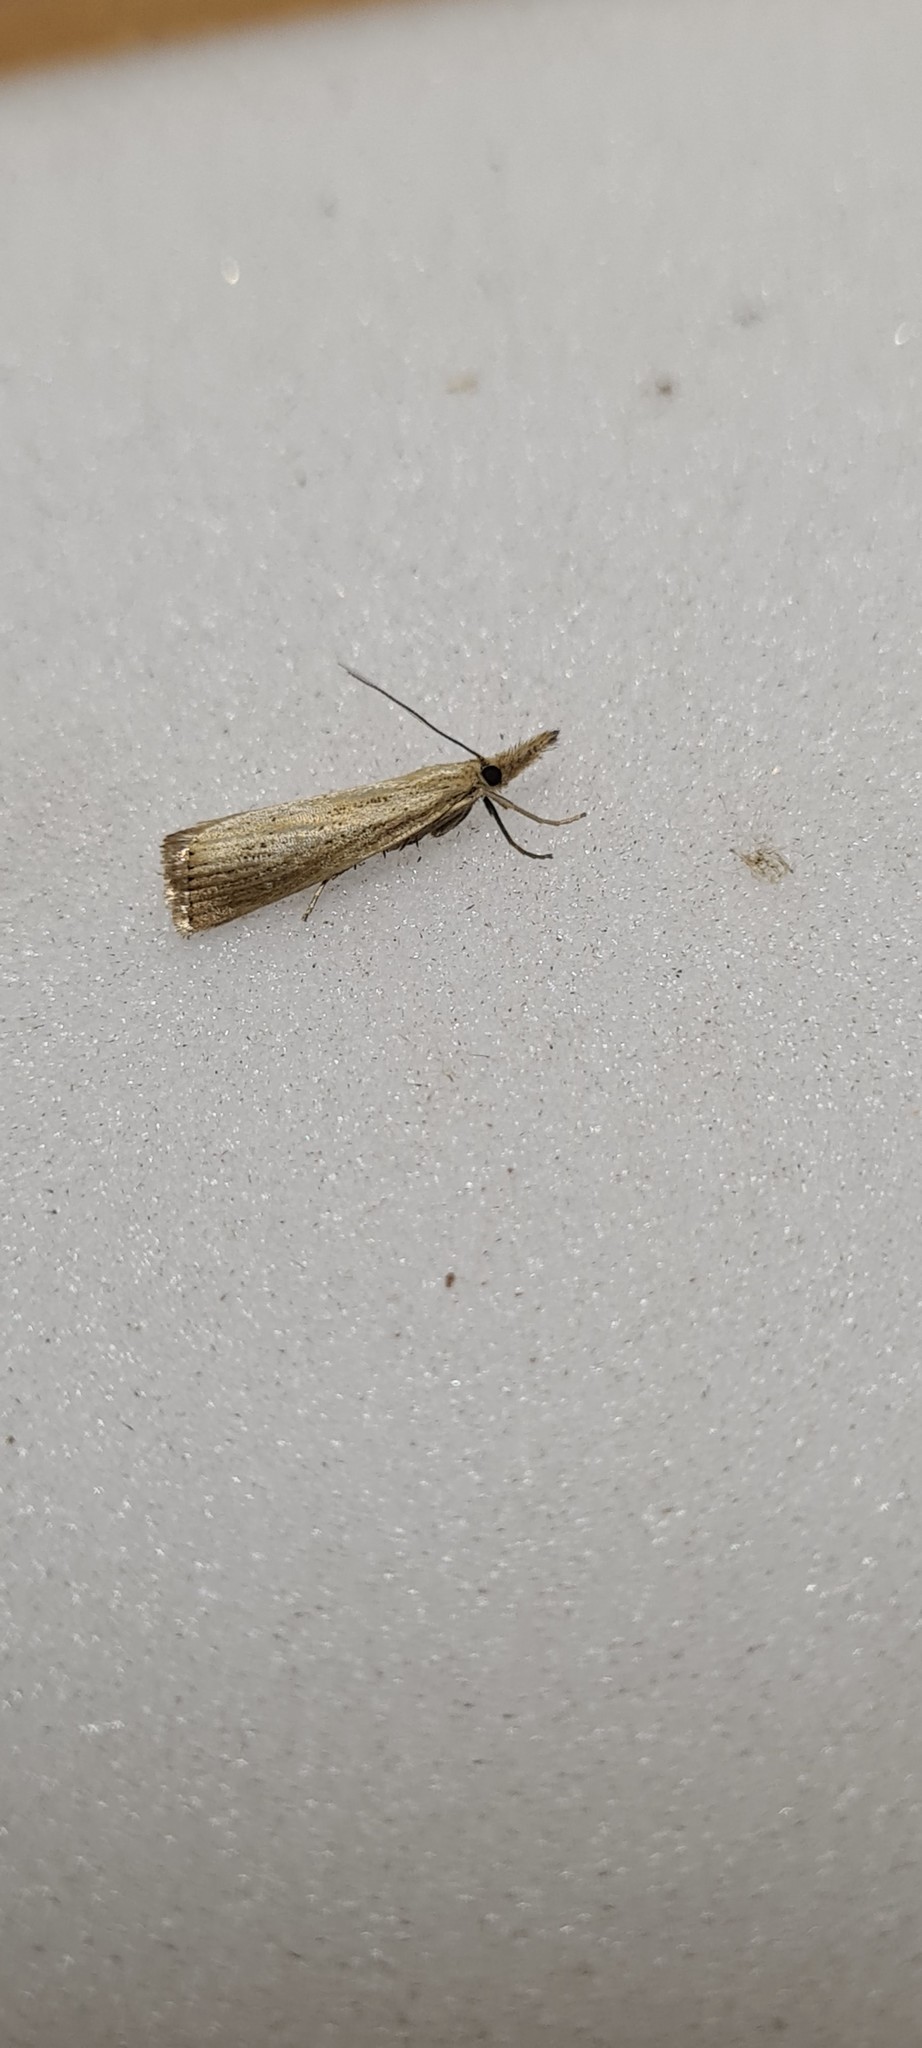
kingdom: Animalia
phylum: Arthropoda
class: Insecta
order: Lepidoptera
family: Crambidae
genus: Agriphila
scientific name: Agriphila straminella
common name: Straw grass-veneer
